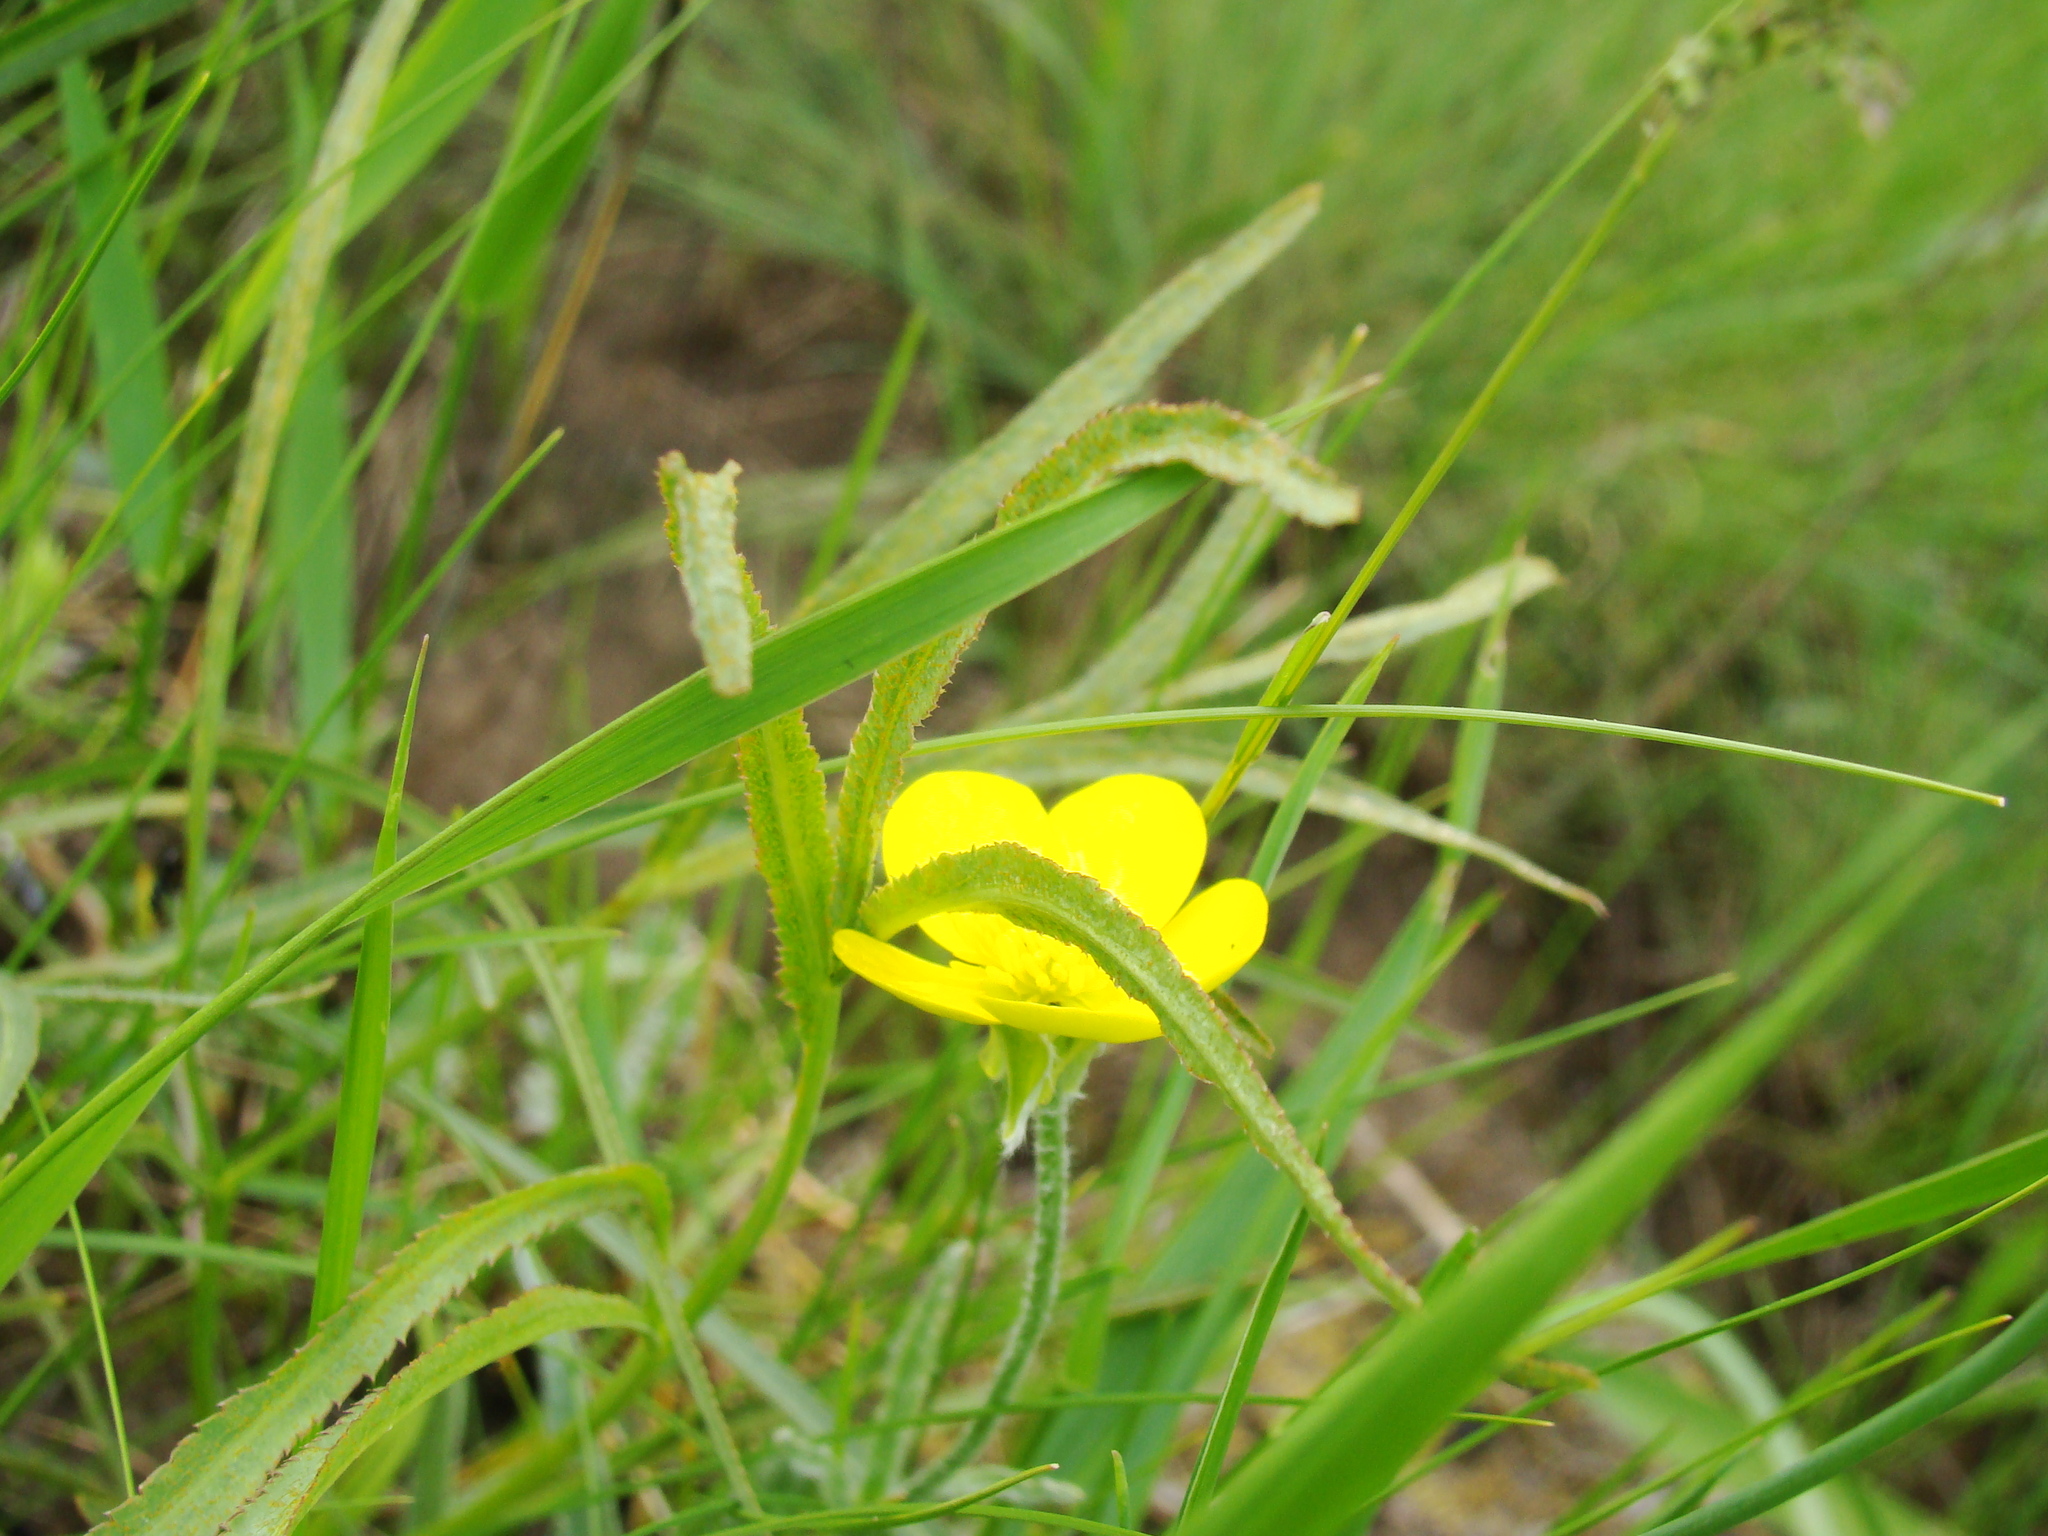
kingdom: Plantae
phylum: Tracheophyta
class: Magnoliopsida
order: Ranunculales
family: Ranunculaceae
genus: Ranunculus
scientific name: Ranunculus illyricus
